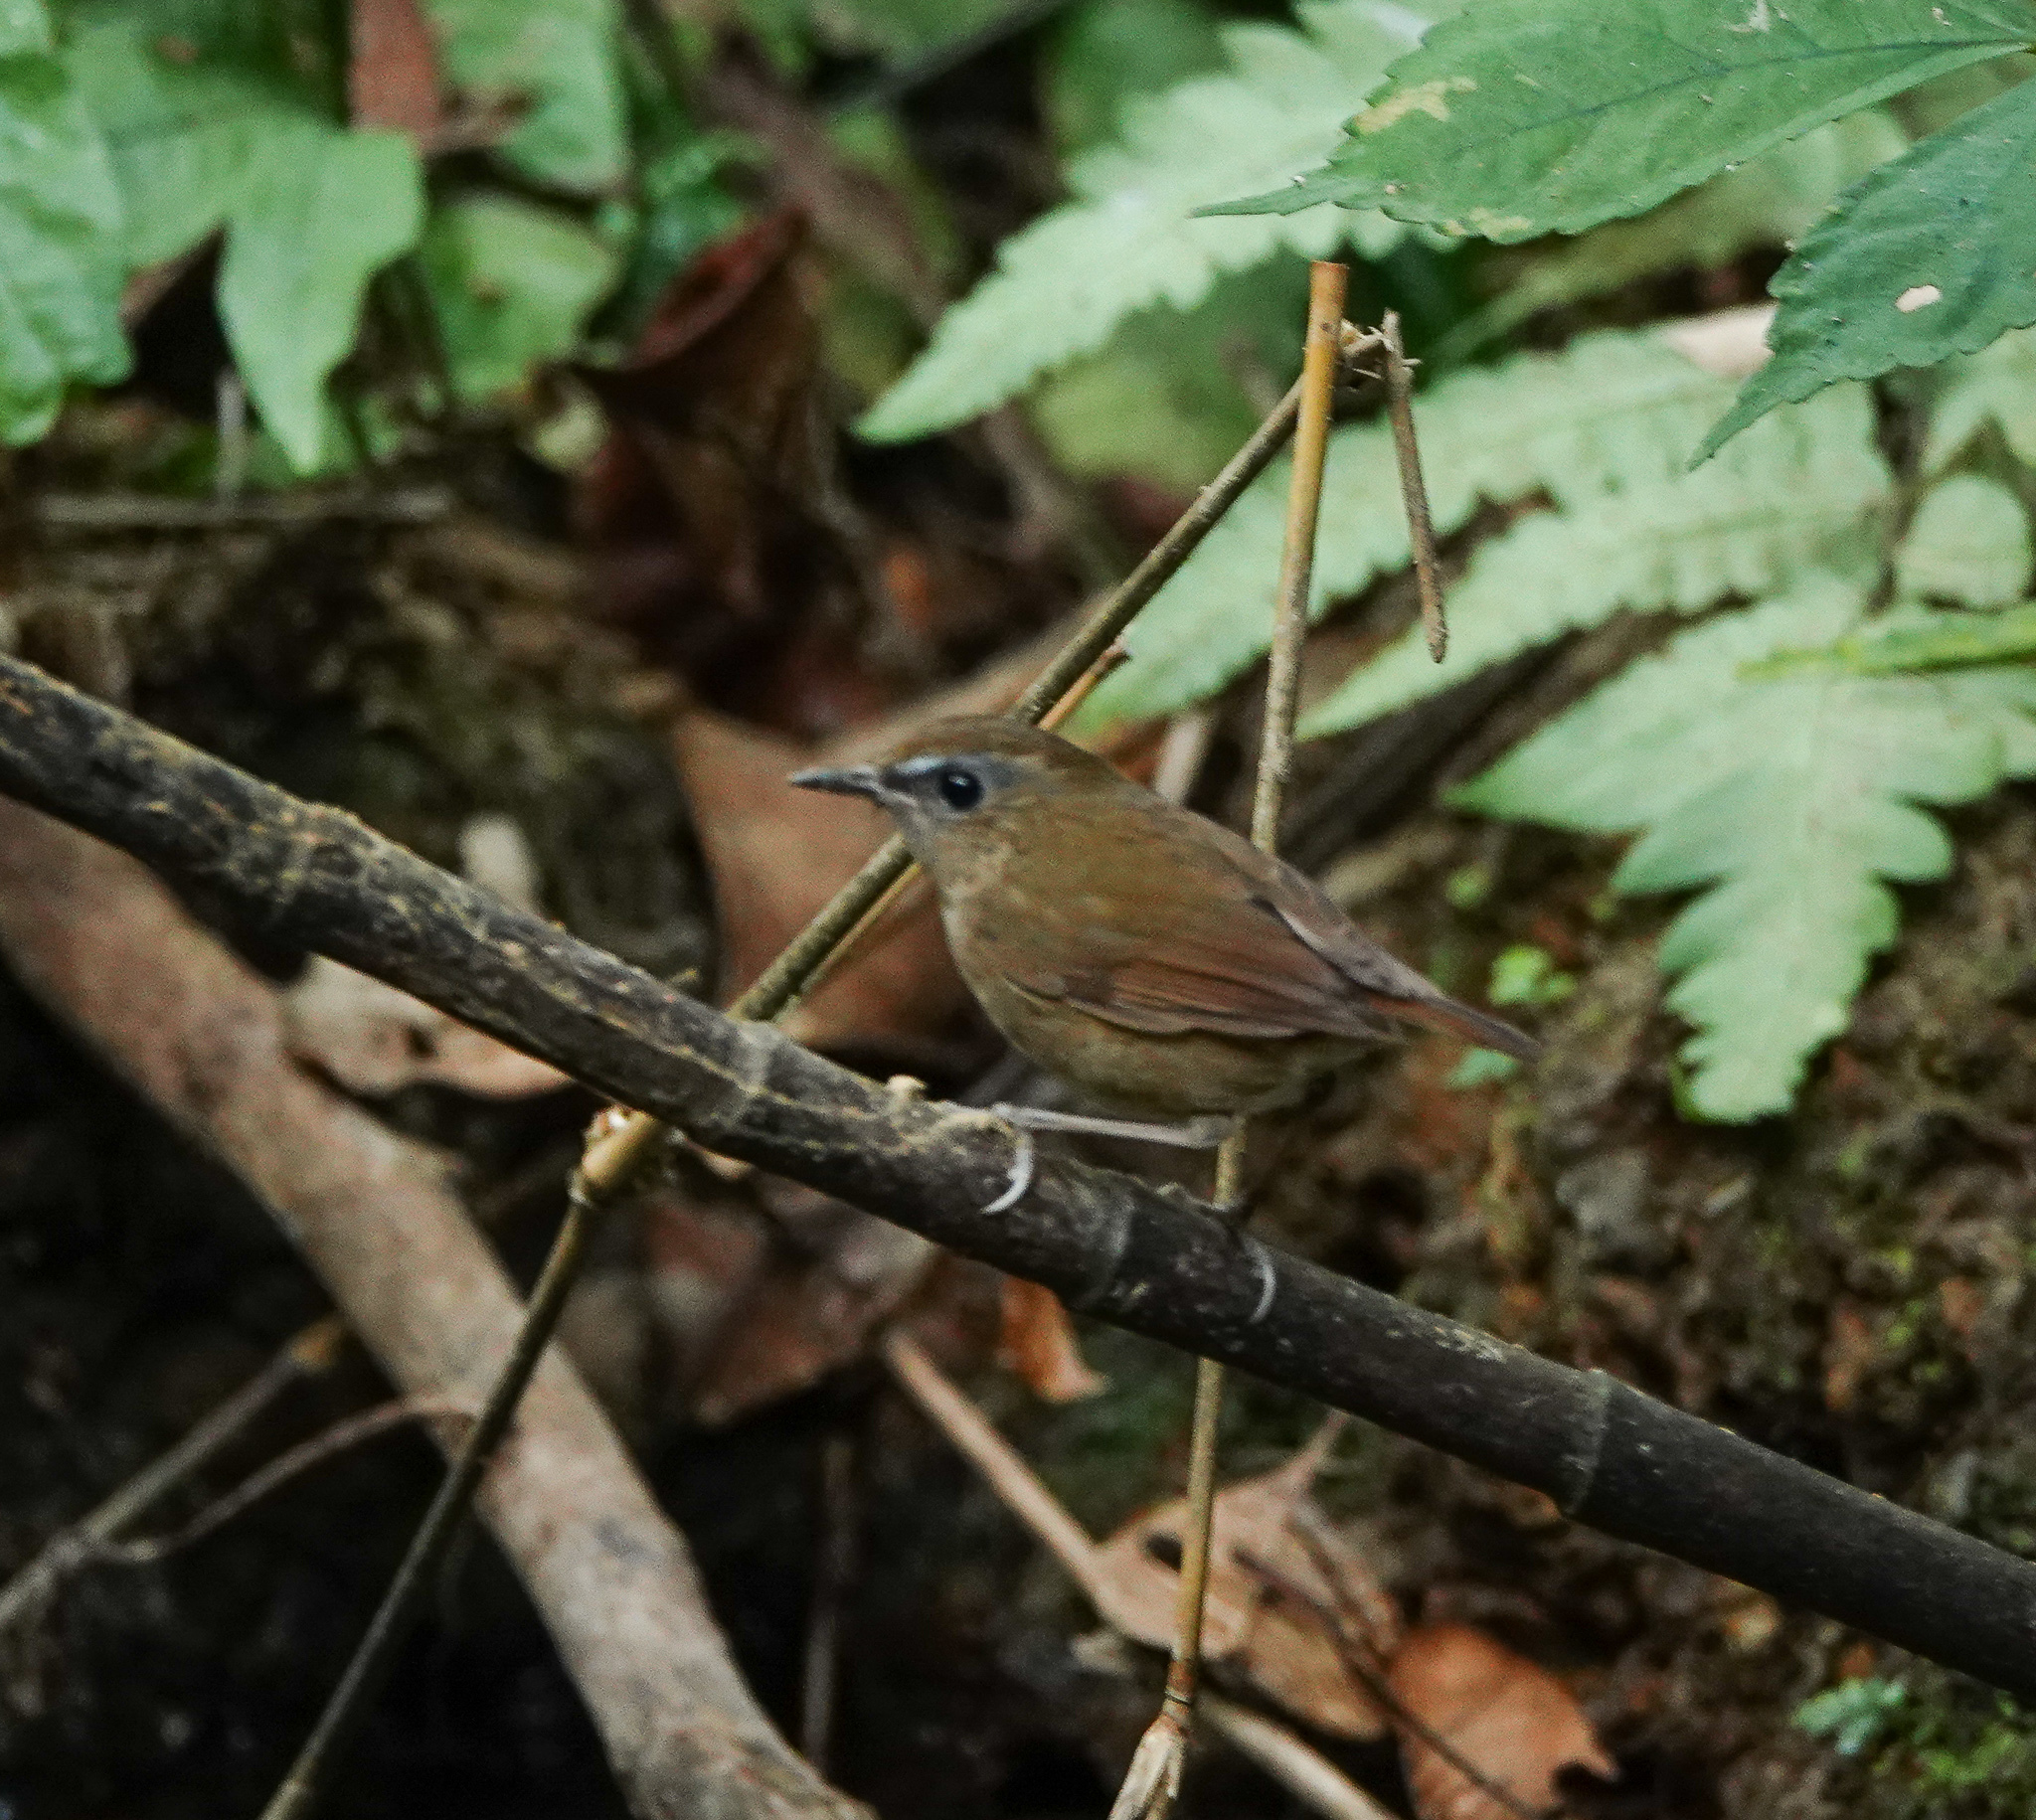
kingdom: Animalia
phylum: Chordata
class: Aves
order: Passeriformes
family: Muscicapidae
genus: Brachypteryx
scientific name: Brachypteryx leucophris
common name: Lesser shortwing
